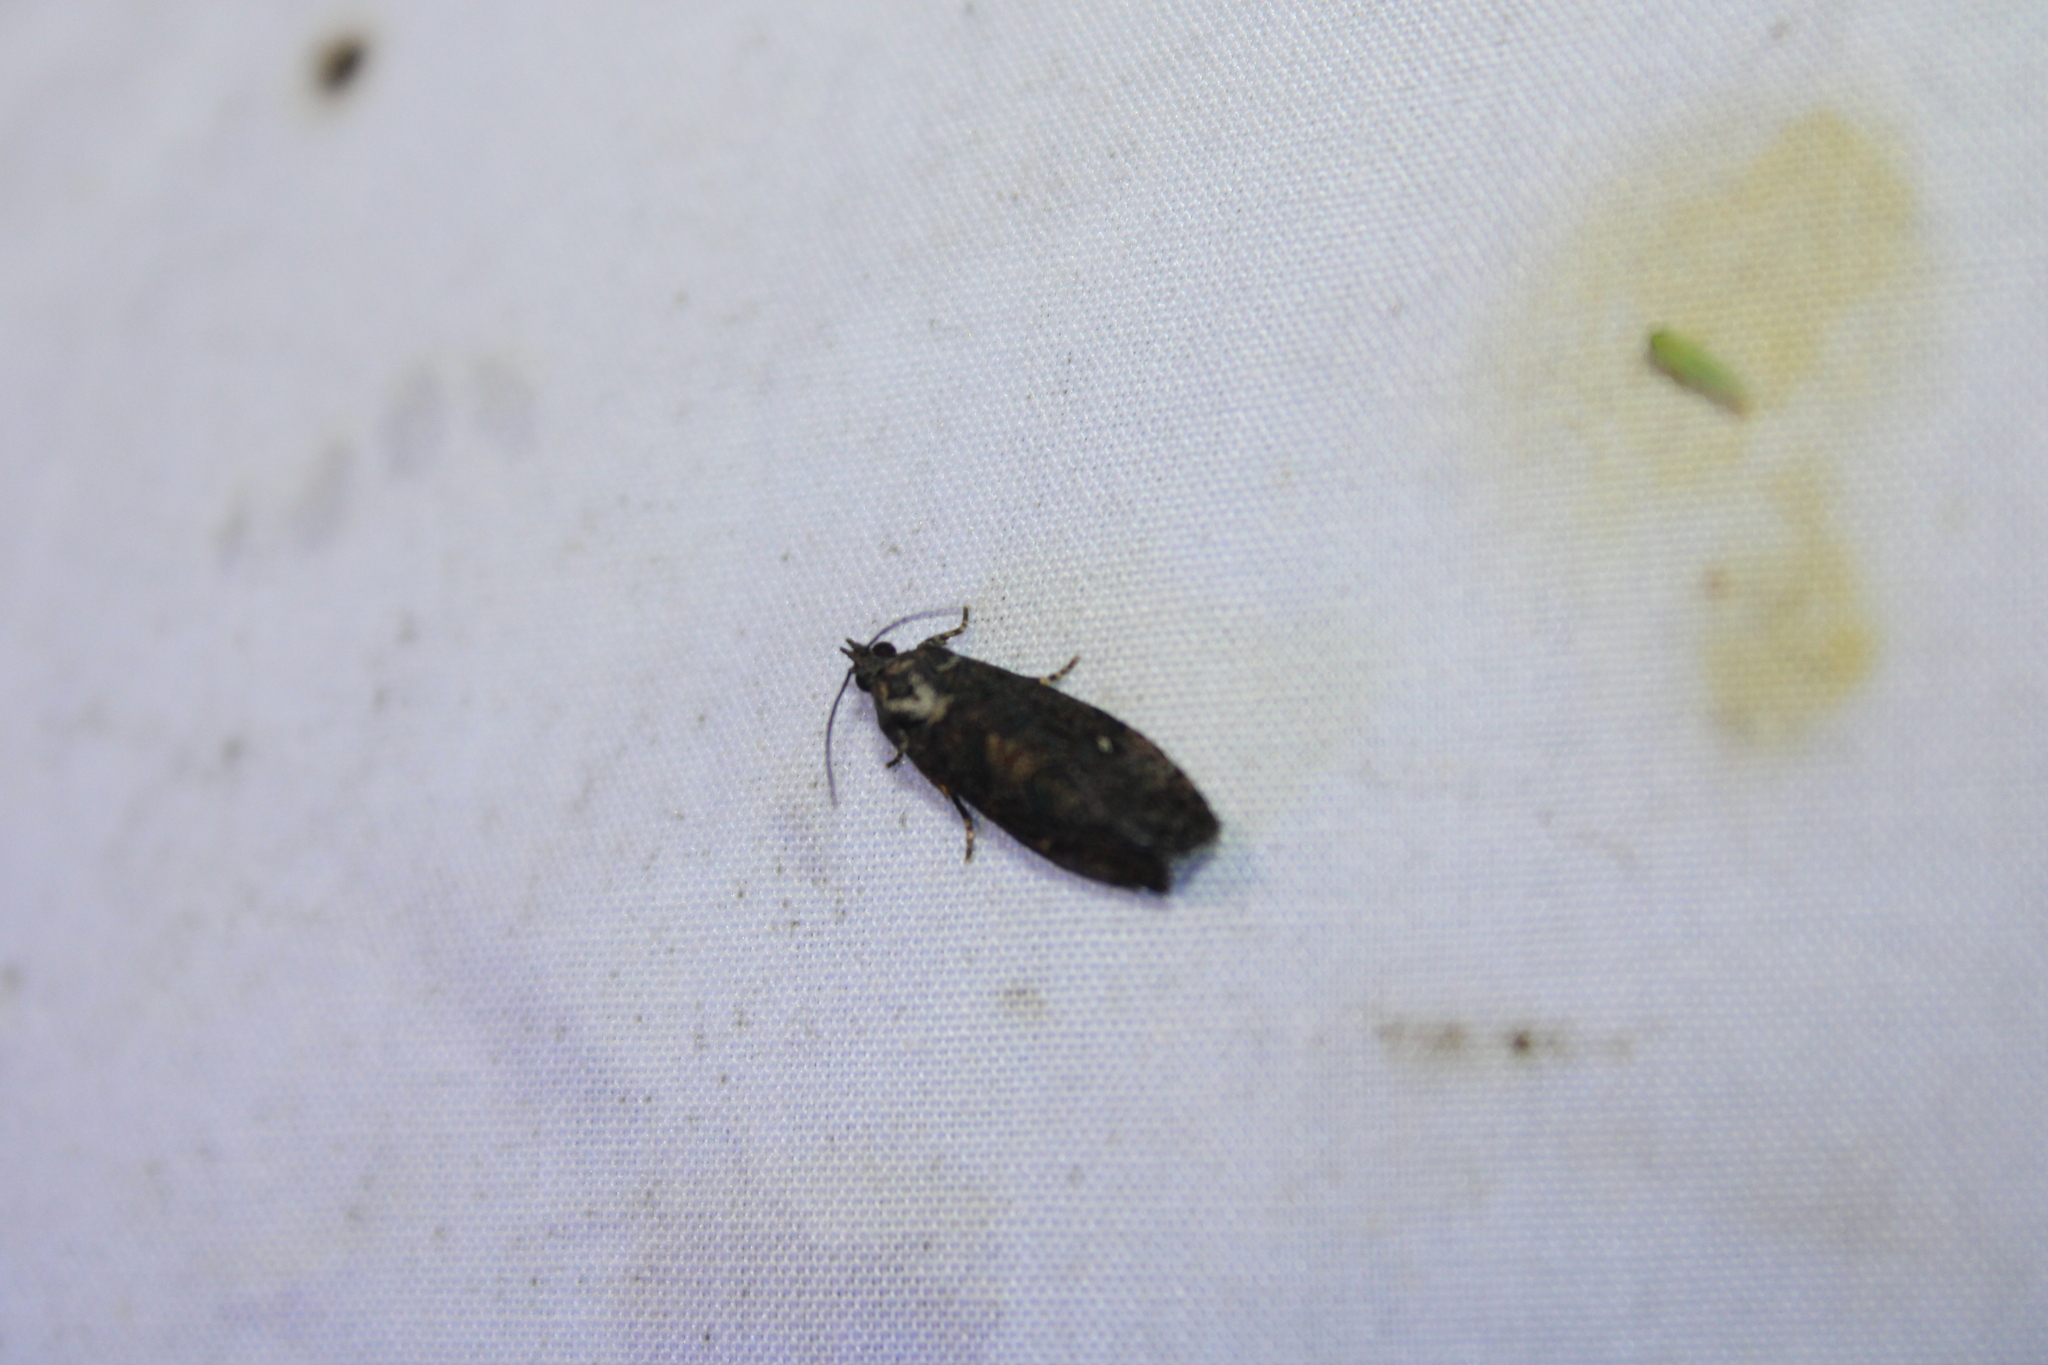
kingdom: Animalia
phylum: Arthropoda
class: Insecta
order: Lepidoptera
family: Tortricidae
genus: Gymnandrosoma
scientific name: Gymnandrosoma punctidiscanum
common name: Dotted ecdytolopha moth
